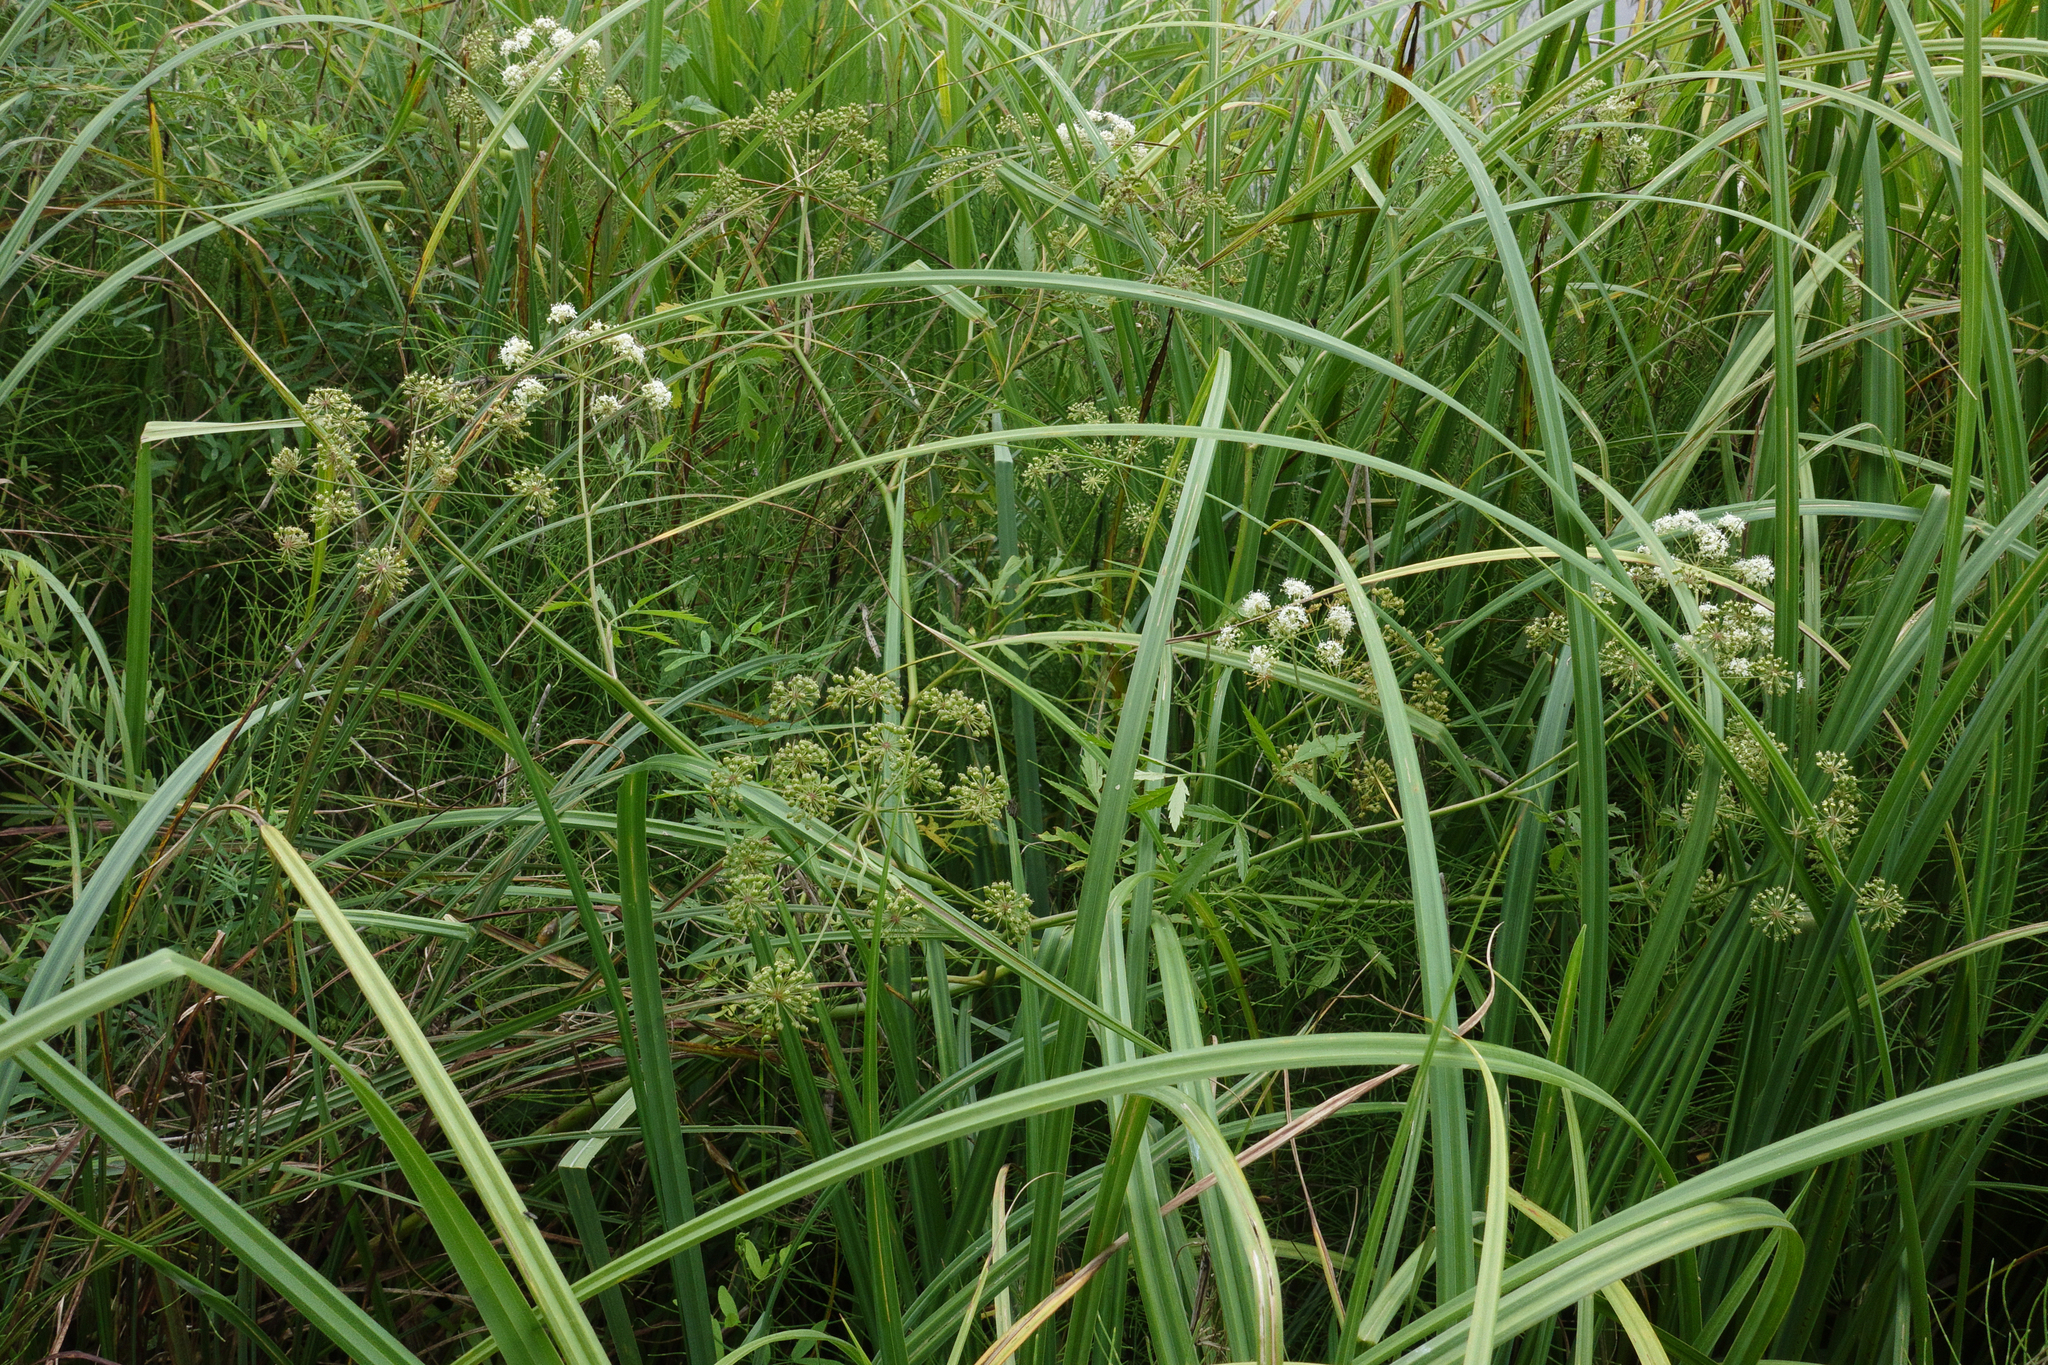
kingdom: Plantae
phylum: Tracheophyta
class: Magnoliopsida
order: Apiales
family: Apiaceae
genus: Cicuta
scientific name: Cicuta virosa
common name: Cowbane
